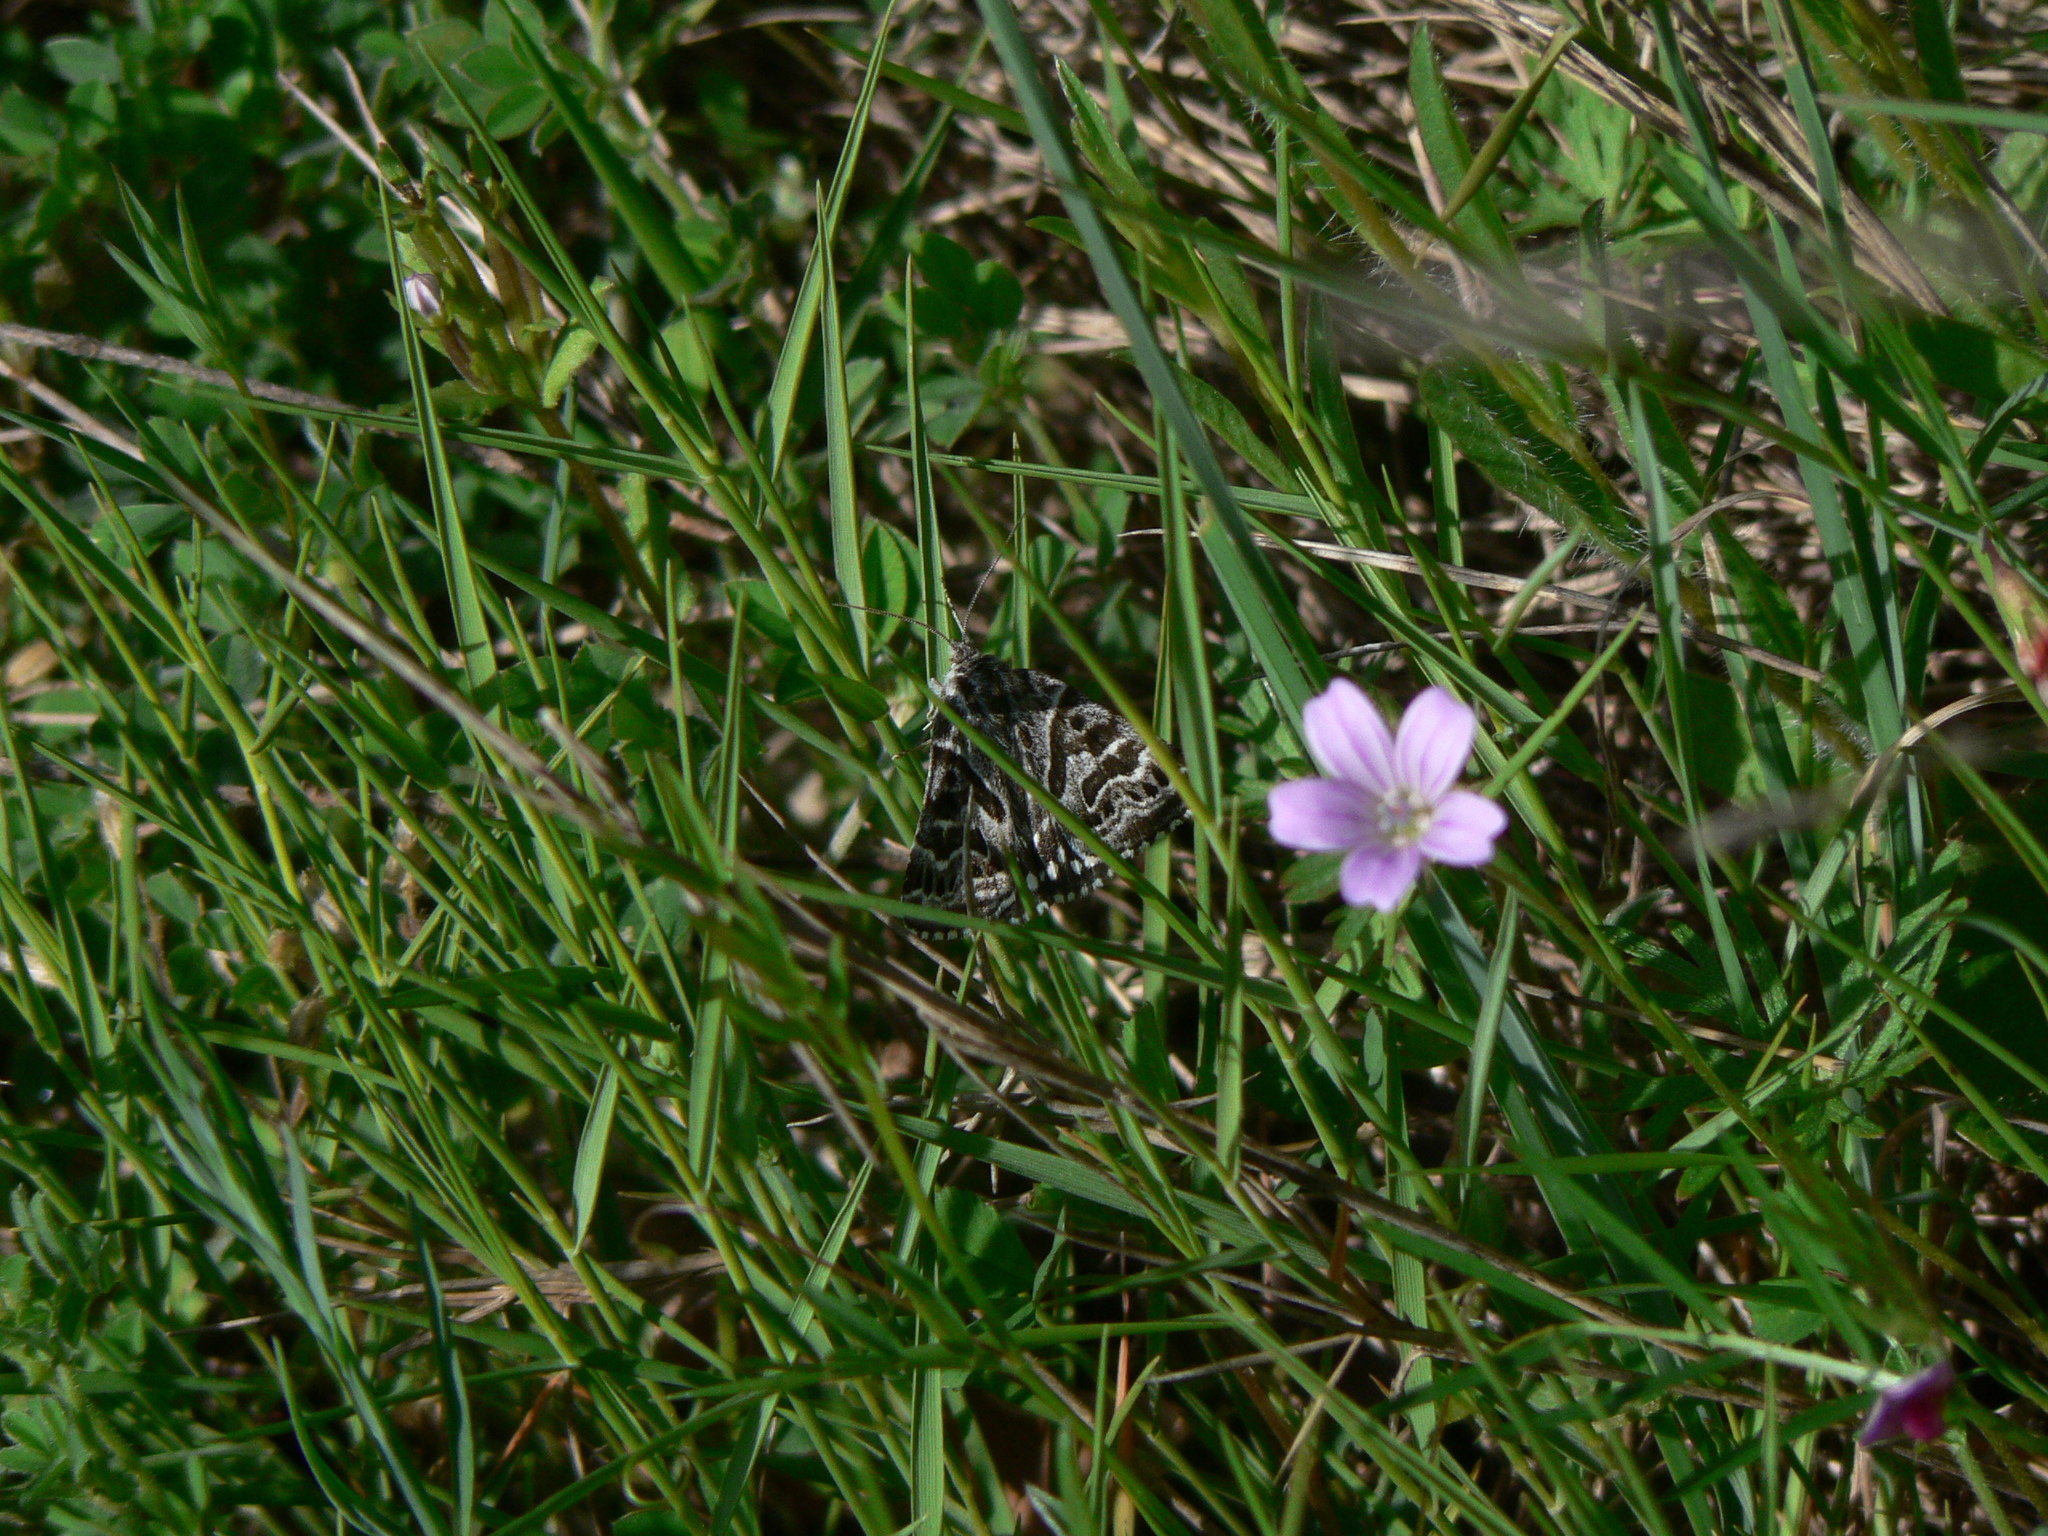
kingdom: Animalia
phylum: Arthropoda
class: Insecta
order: Lepidoptera
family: Erebidae
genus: Callistege
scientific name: Callistege mi
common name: Mother shipton
